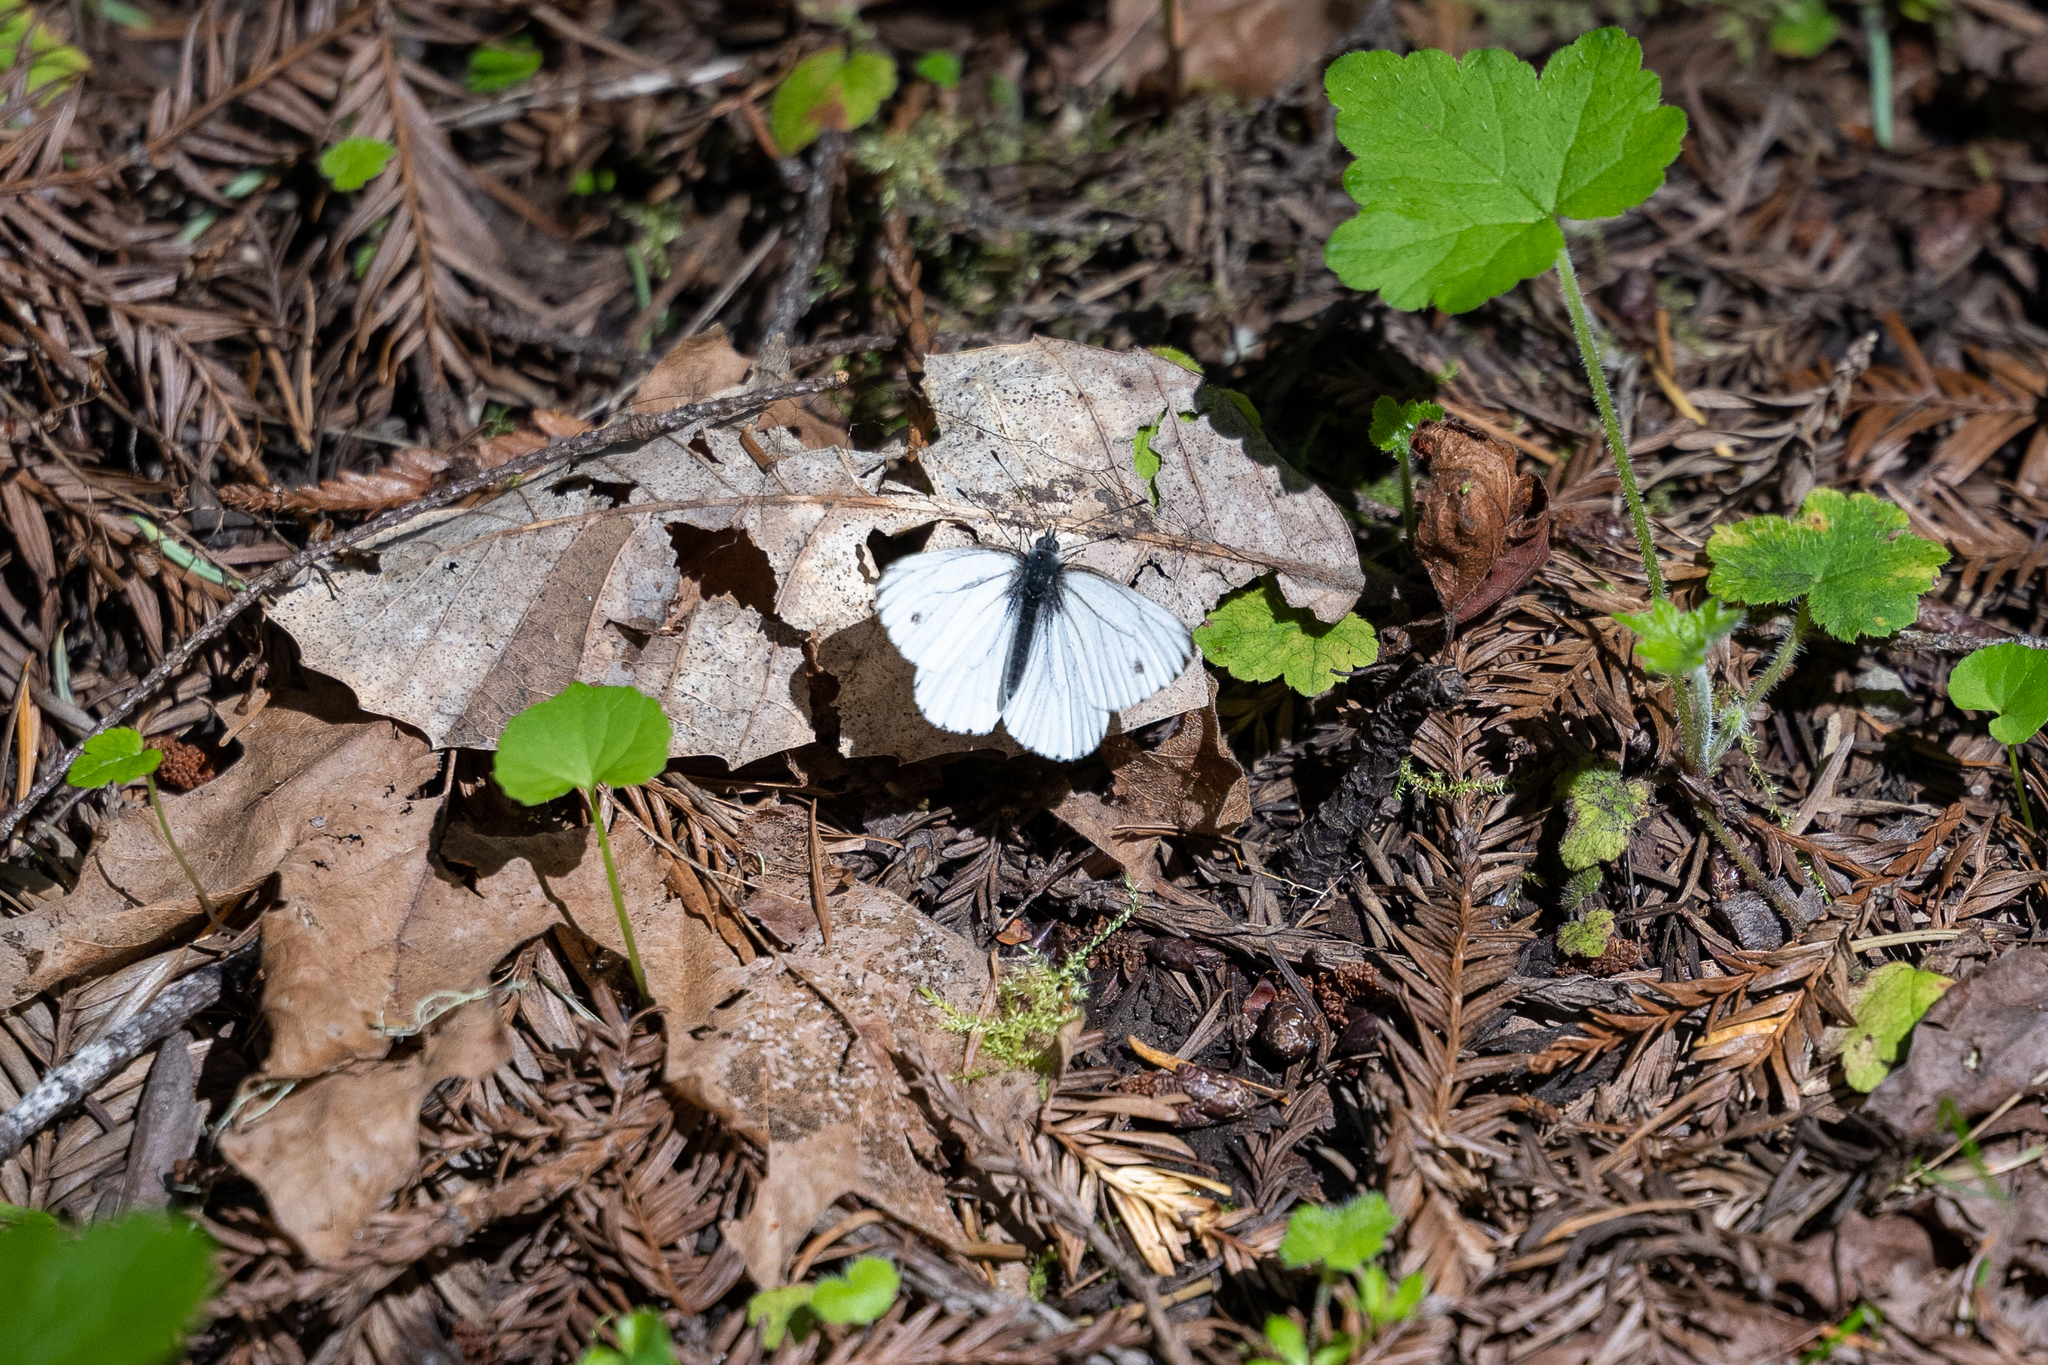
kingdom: Animalia
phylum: Arthropoda
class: Insecta
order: Lepidoptera
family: Pieridae
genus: Pieris
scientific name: Pieris rapae
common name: Small white
